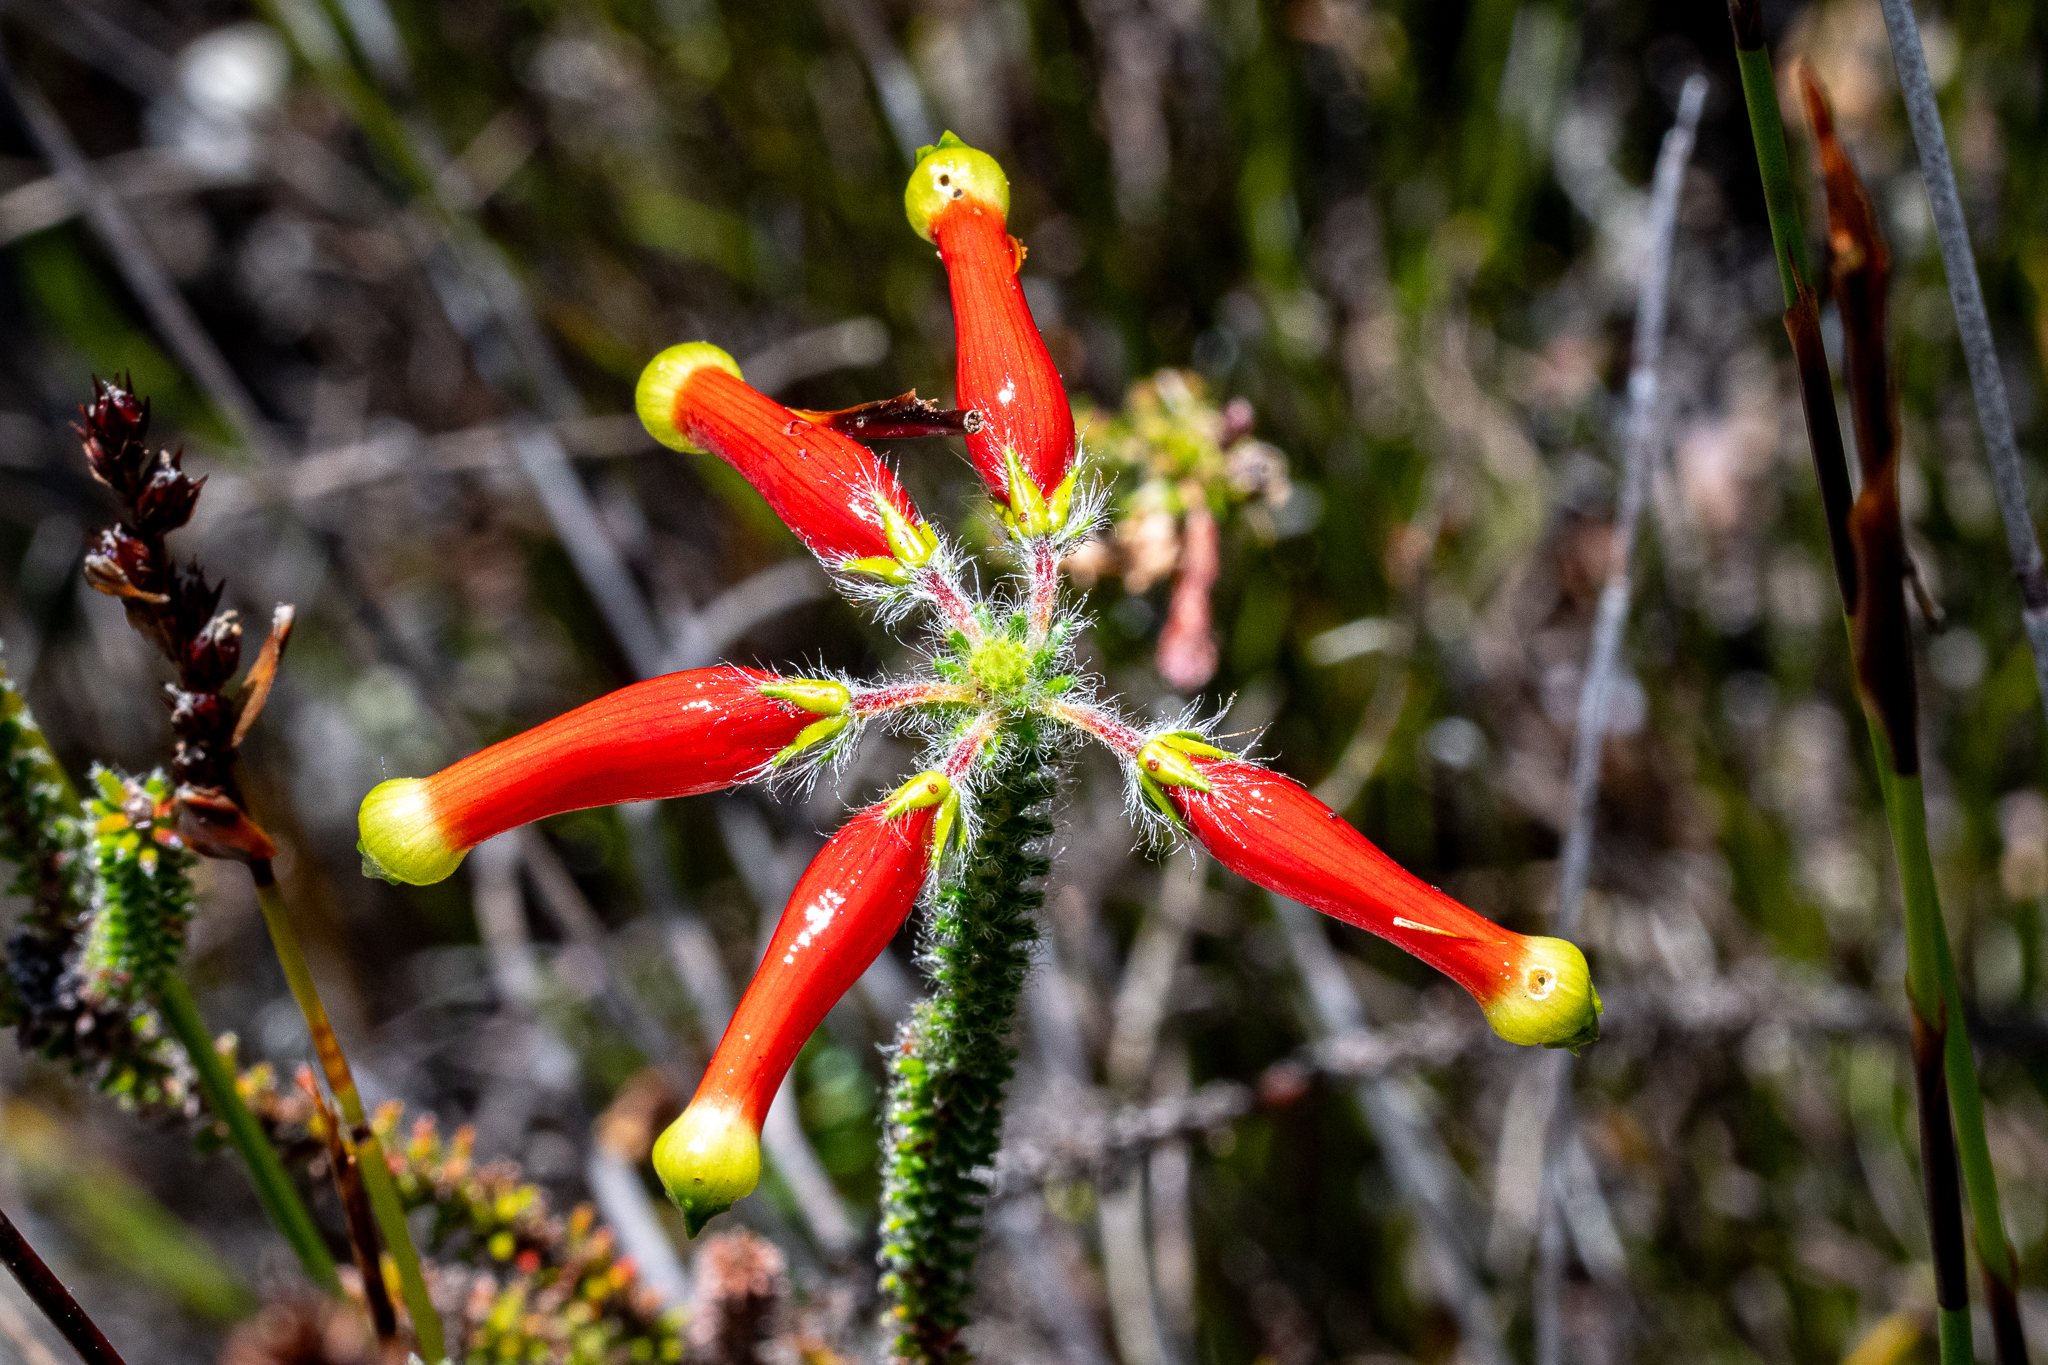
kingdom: Plantae
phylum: Tracheophyta
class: Magnoliopsida
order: Ericales
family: Ericaceae
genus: Erica
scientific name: Erica massonii
